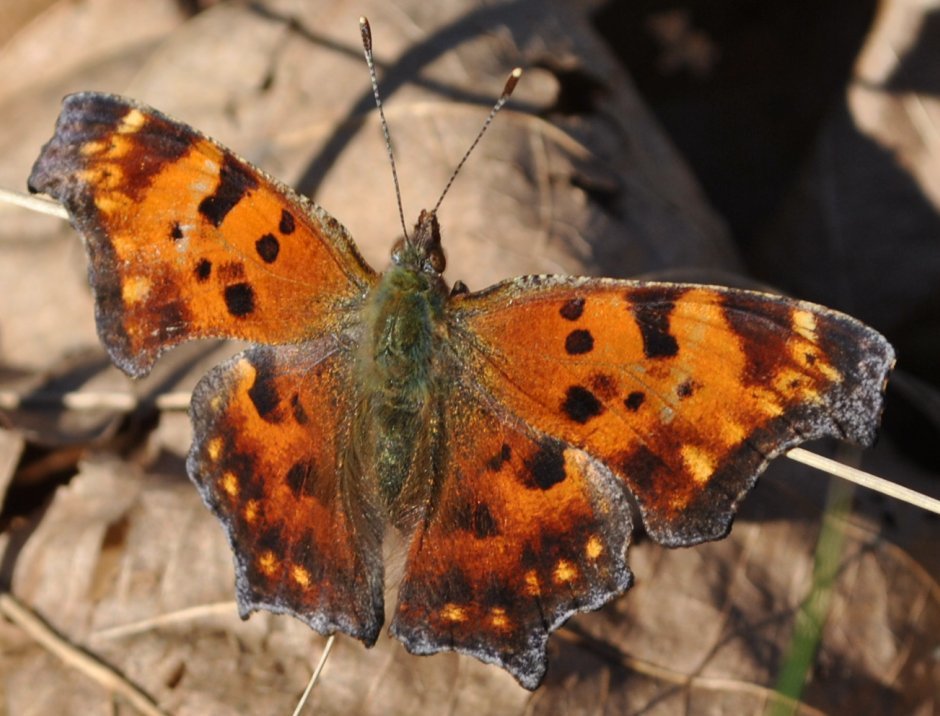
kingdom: Animalia
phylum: Arthropoda
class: Insecta
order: Lepidoptera
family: Nymphalidae
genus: Polygonia
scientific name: Polygonia comma
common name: Eastern comma
